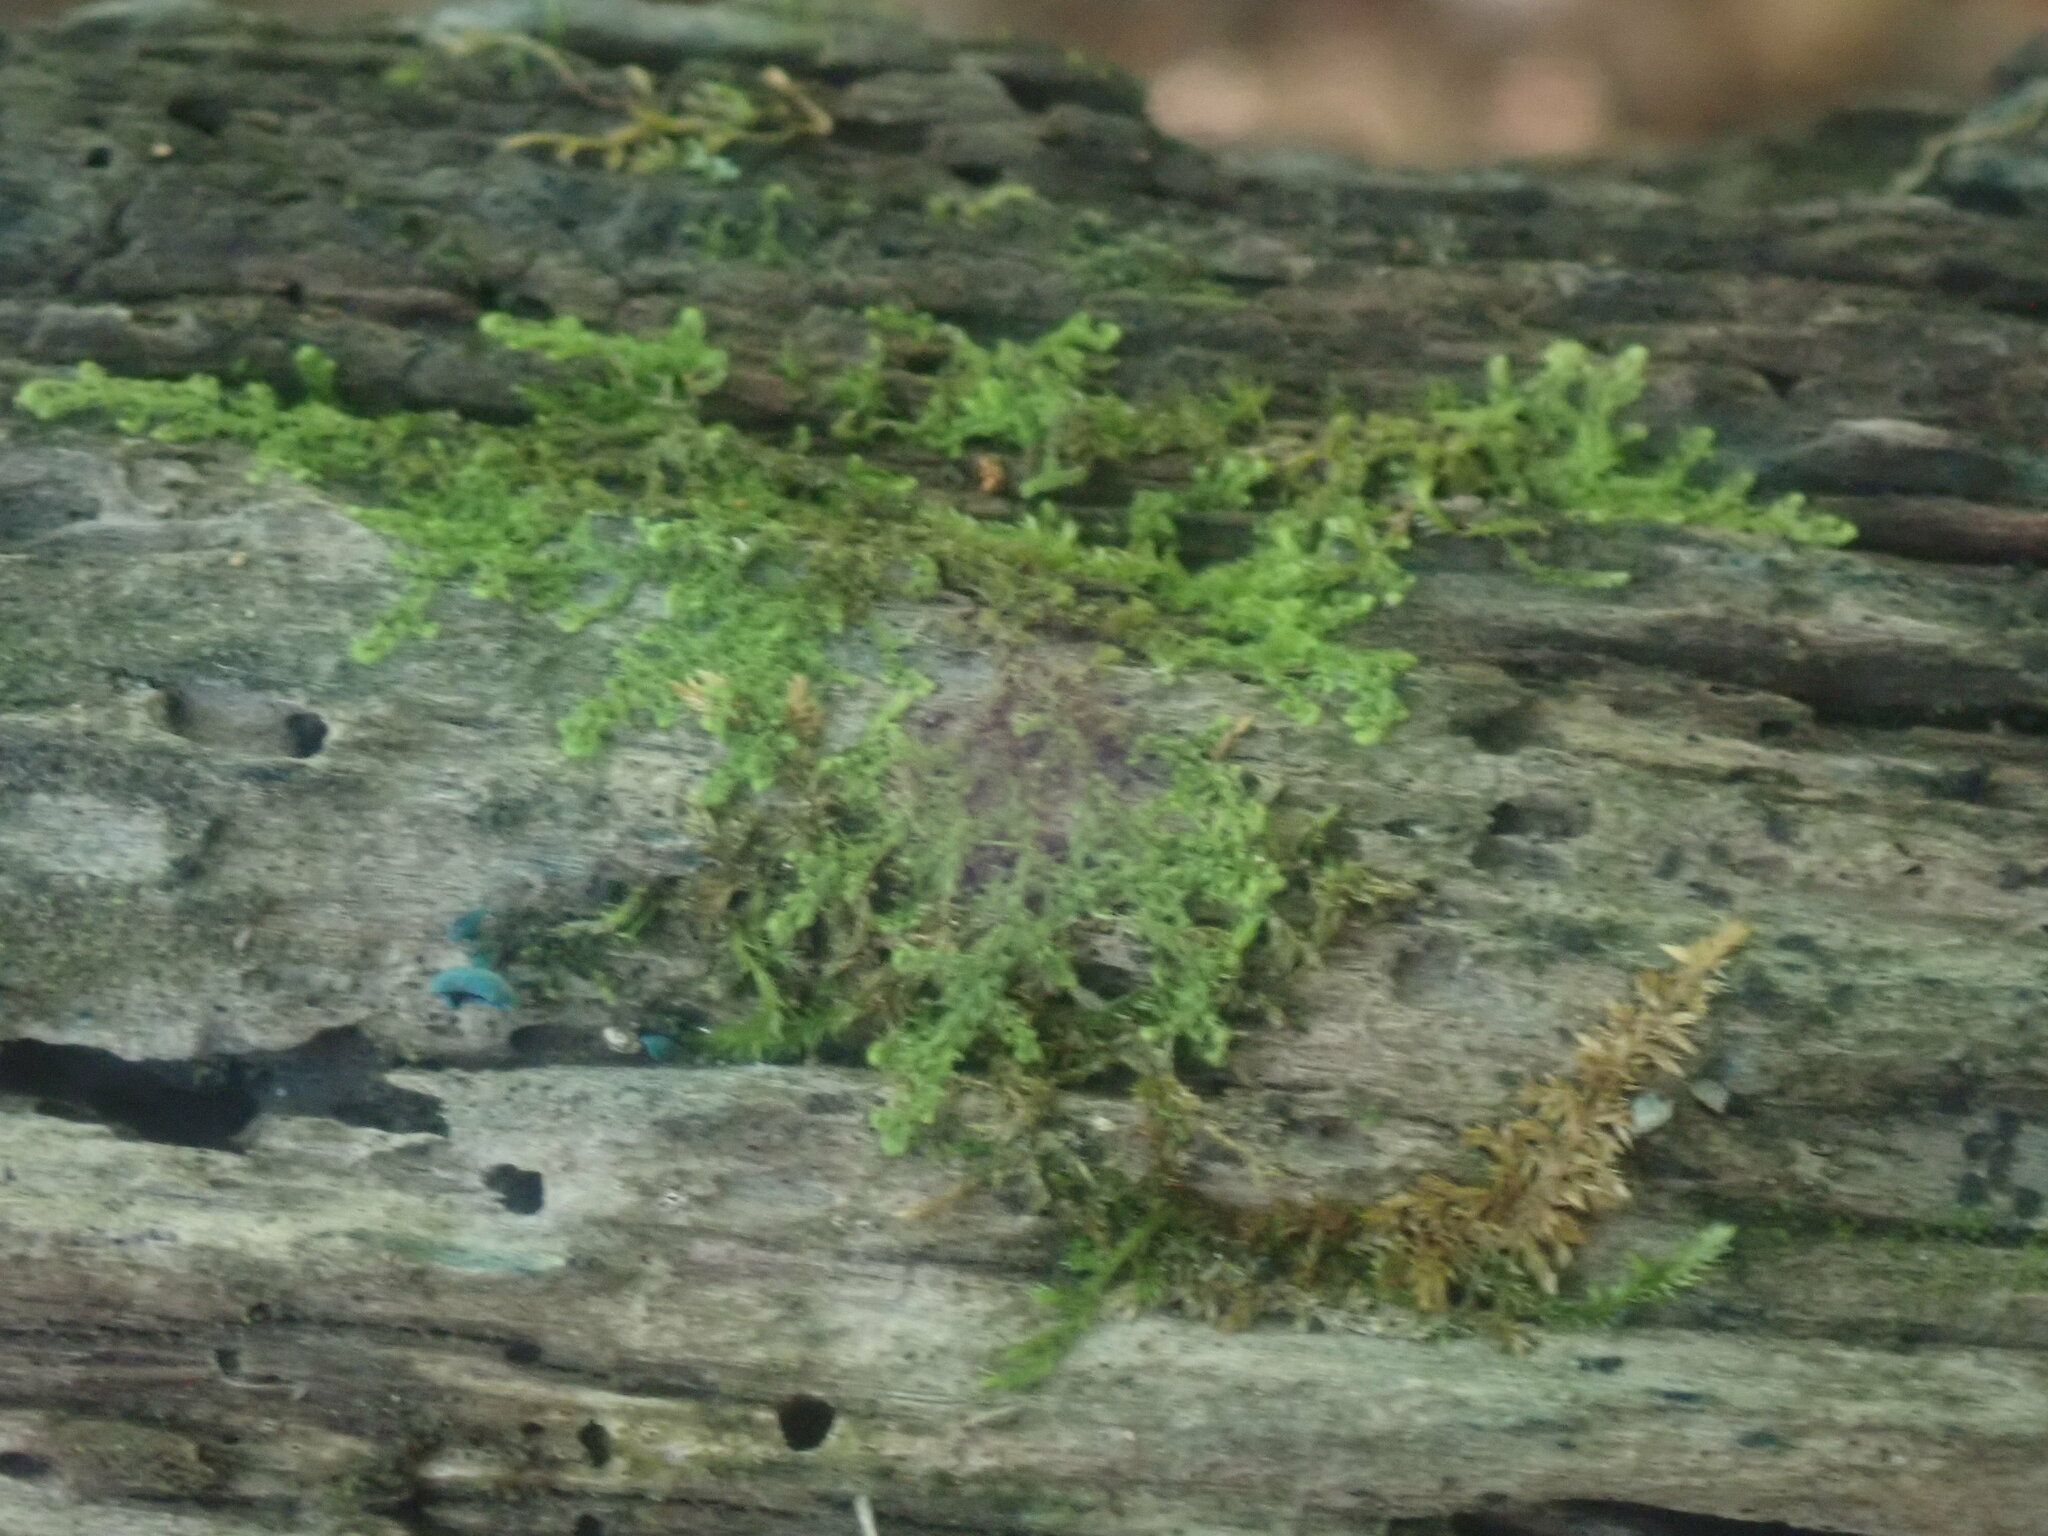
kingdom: Plantae
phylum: Marchantiophyta
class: Jungermanniopsida
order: Ptilidiales
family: Ptilidiaceae
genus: Ptilidium
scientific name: Ptilidium pulcherrimum
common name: Tree fringewort
